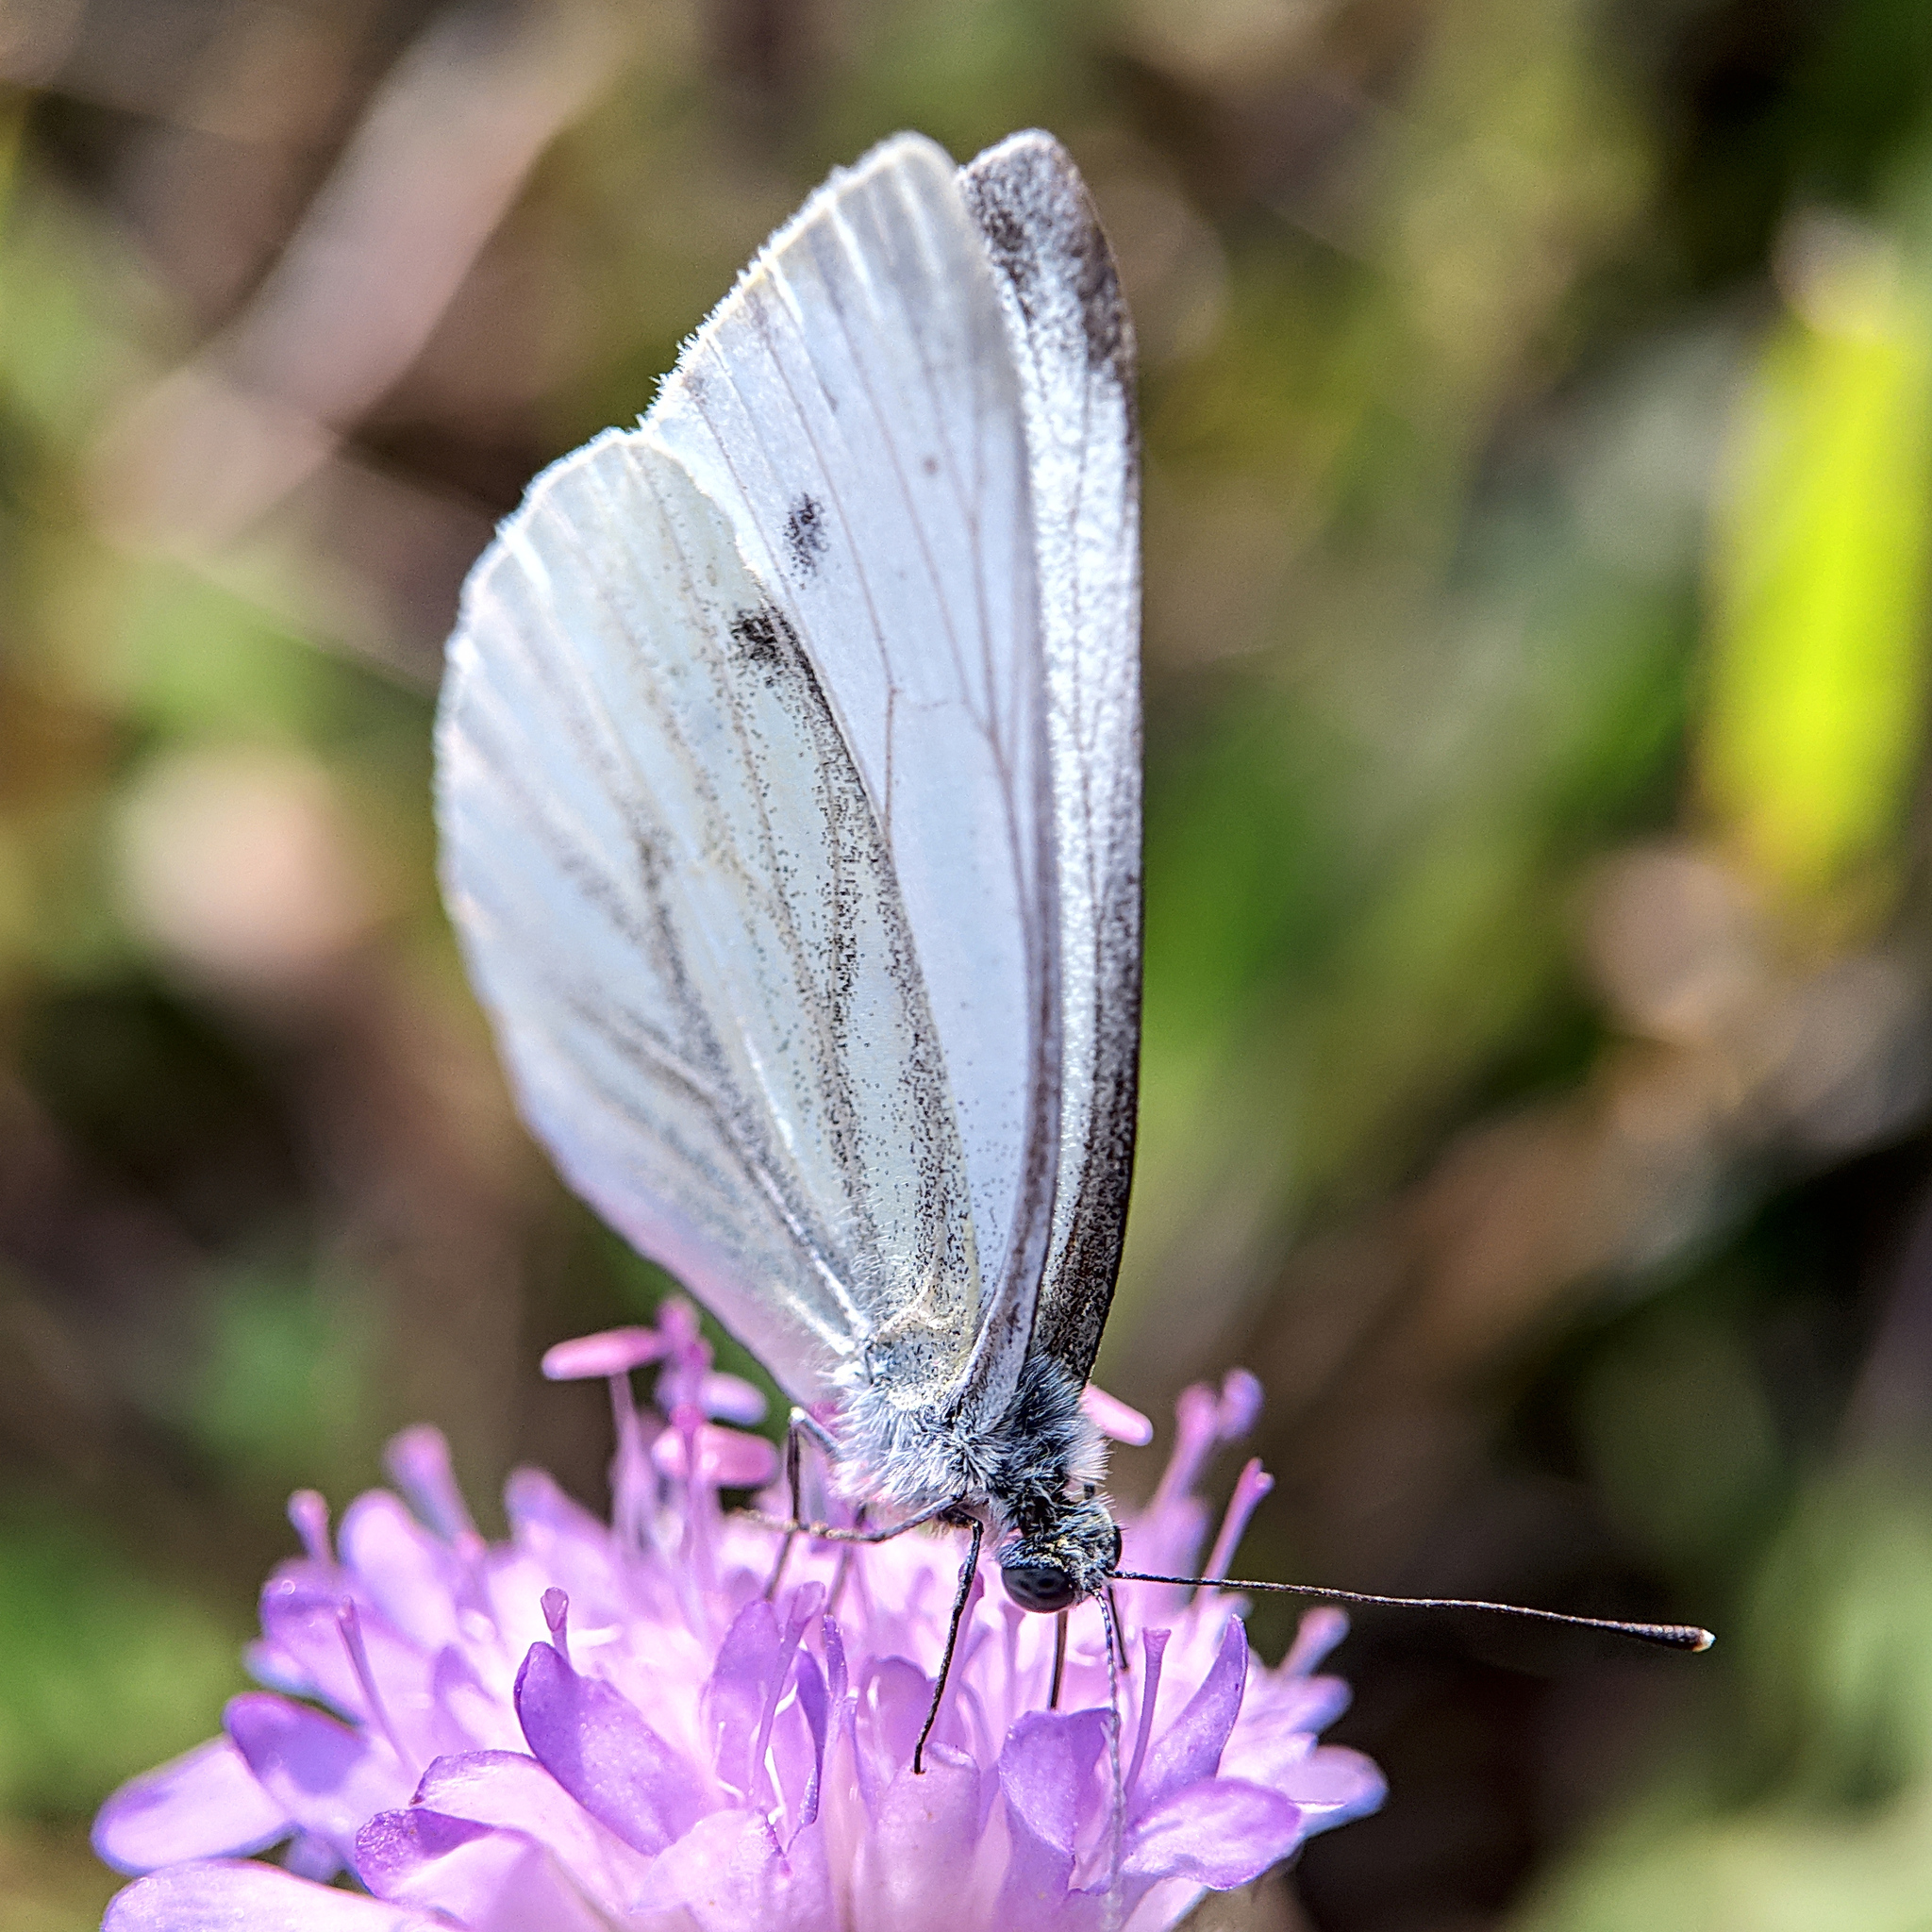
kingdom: Animalia
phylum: Arthropoda
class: Insecta
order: Lepidoptera
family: Pieridae
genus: Pieris
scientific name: Pieris napi
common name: Green-veined white
